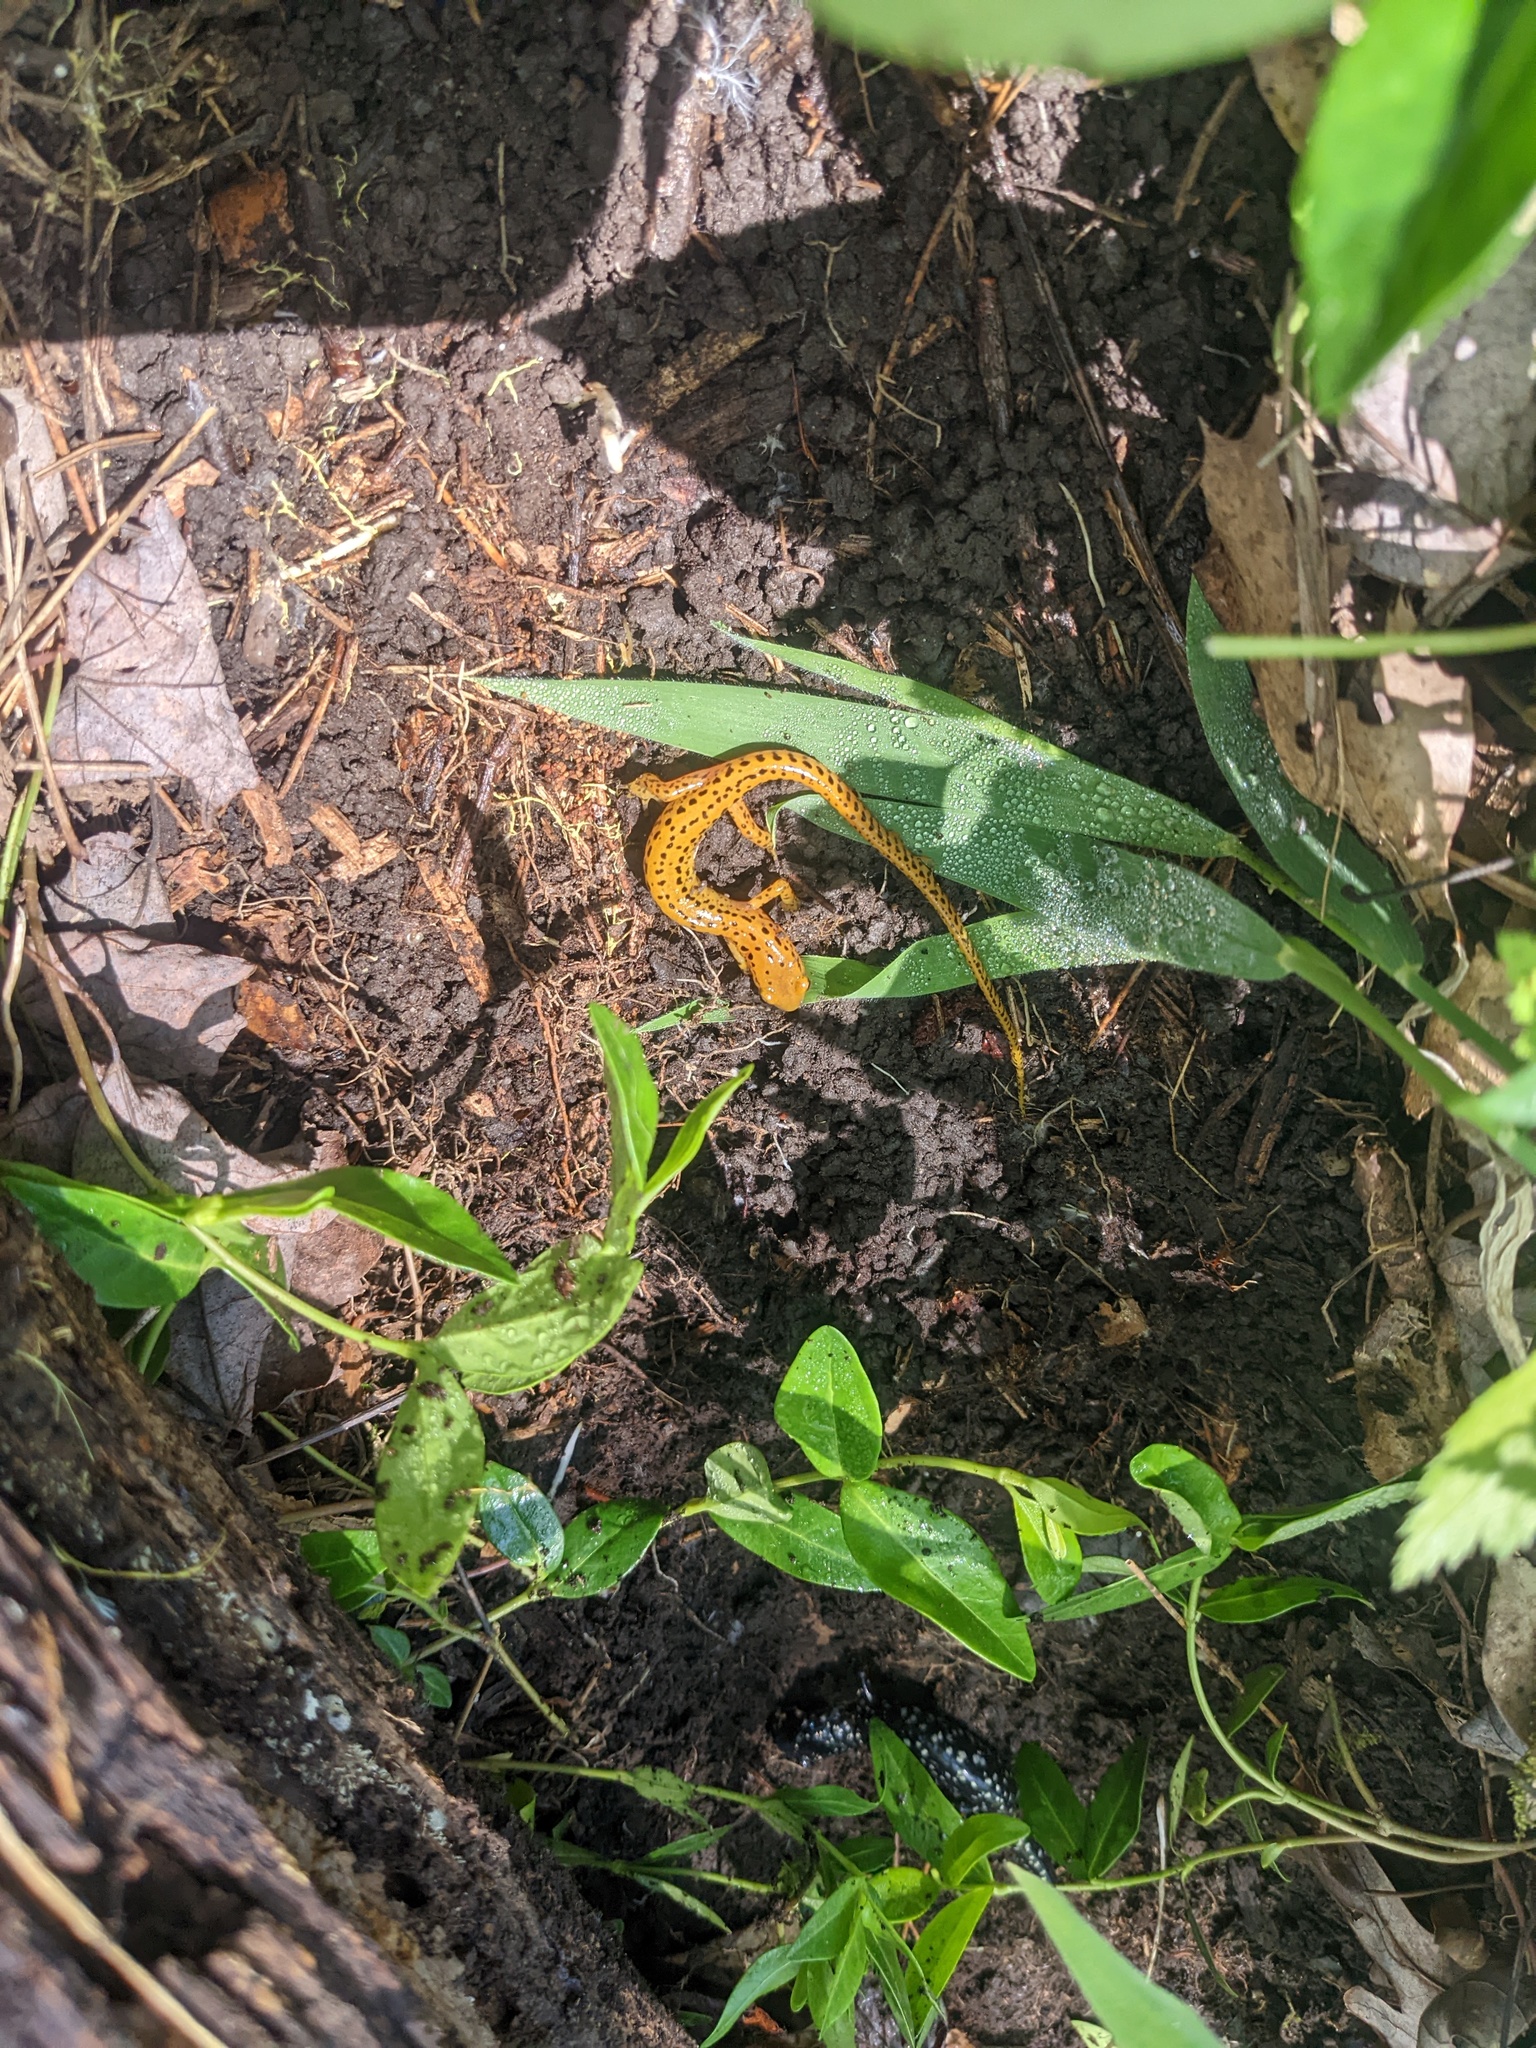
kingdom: Animalia
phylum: Chordata
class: Amphibia
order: Caudata
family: Plethodontidae
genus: Eurycea
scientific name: Eurycea longicauda
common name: Long-tailed salamander
